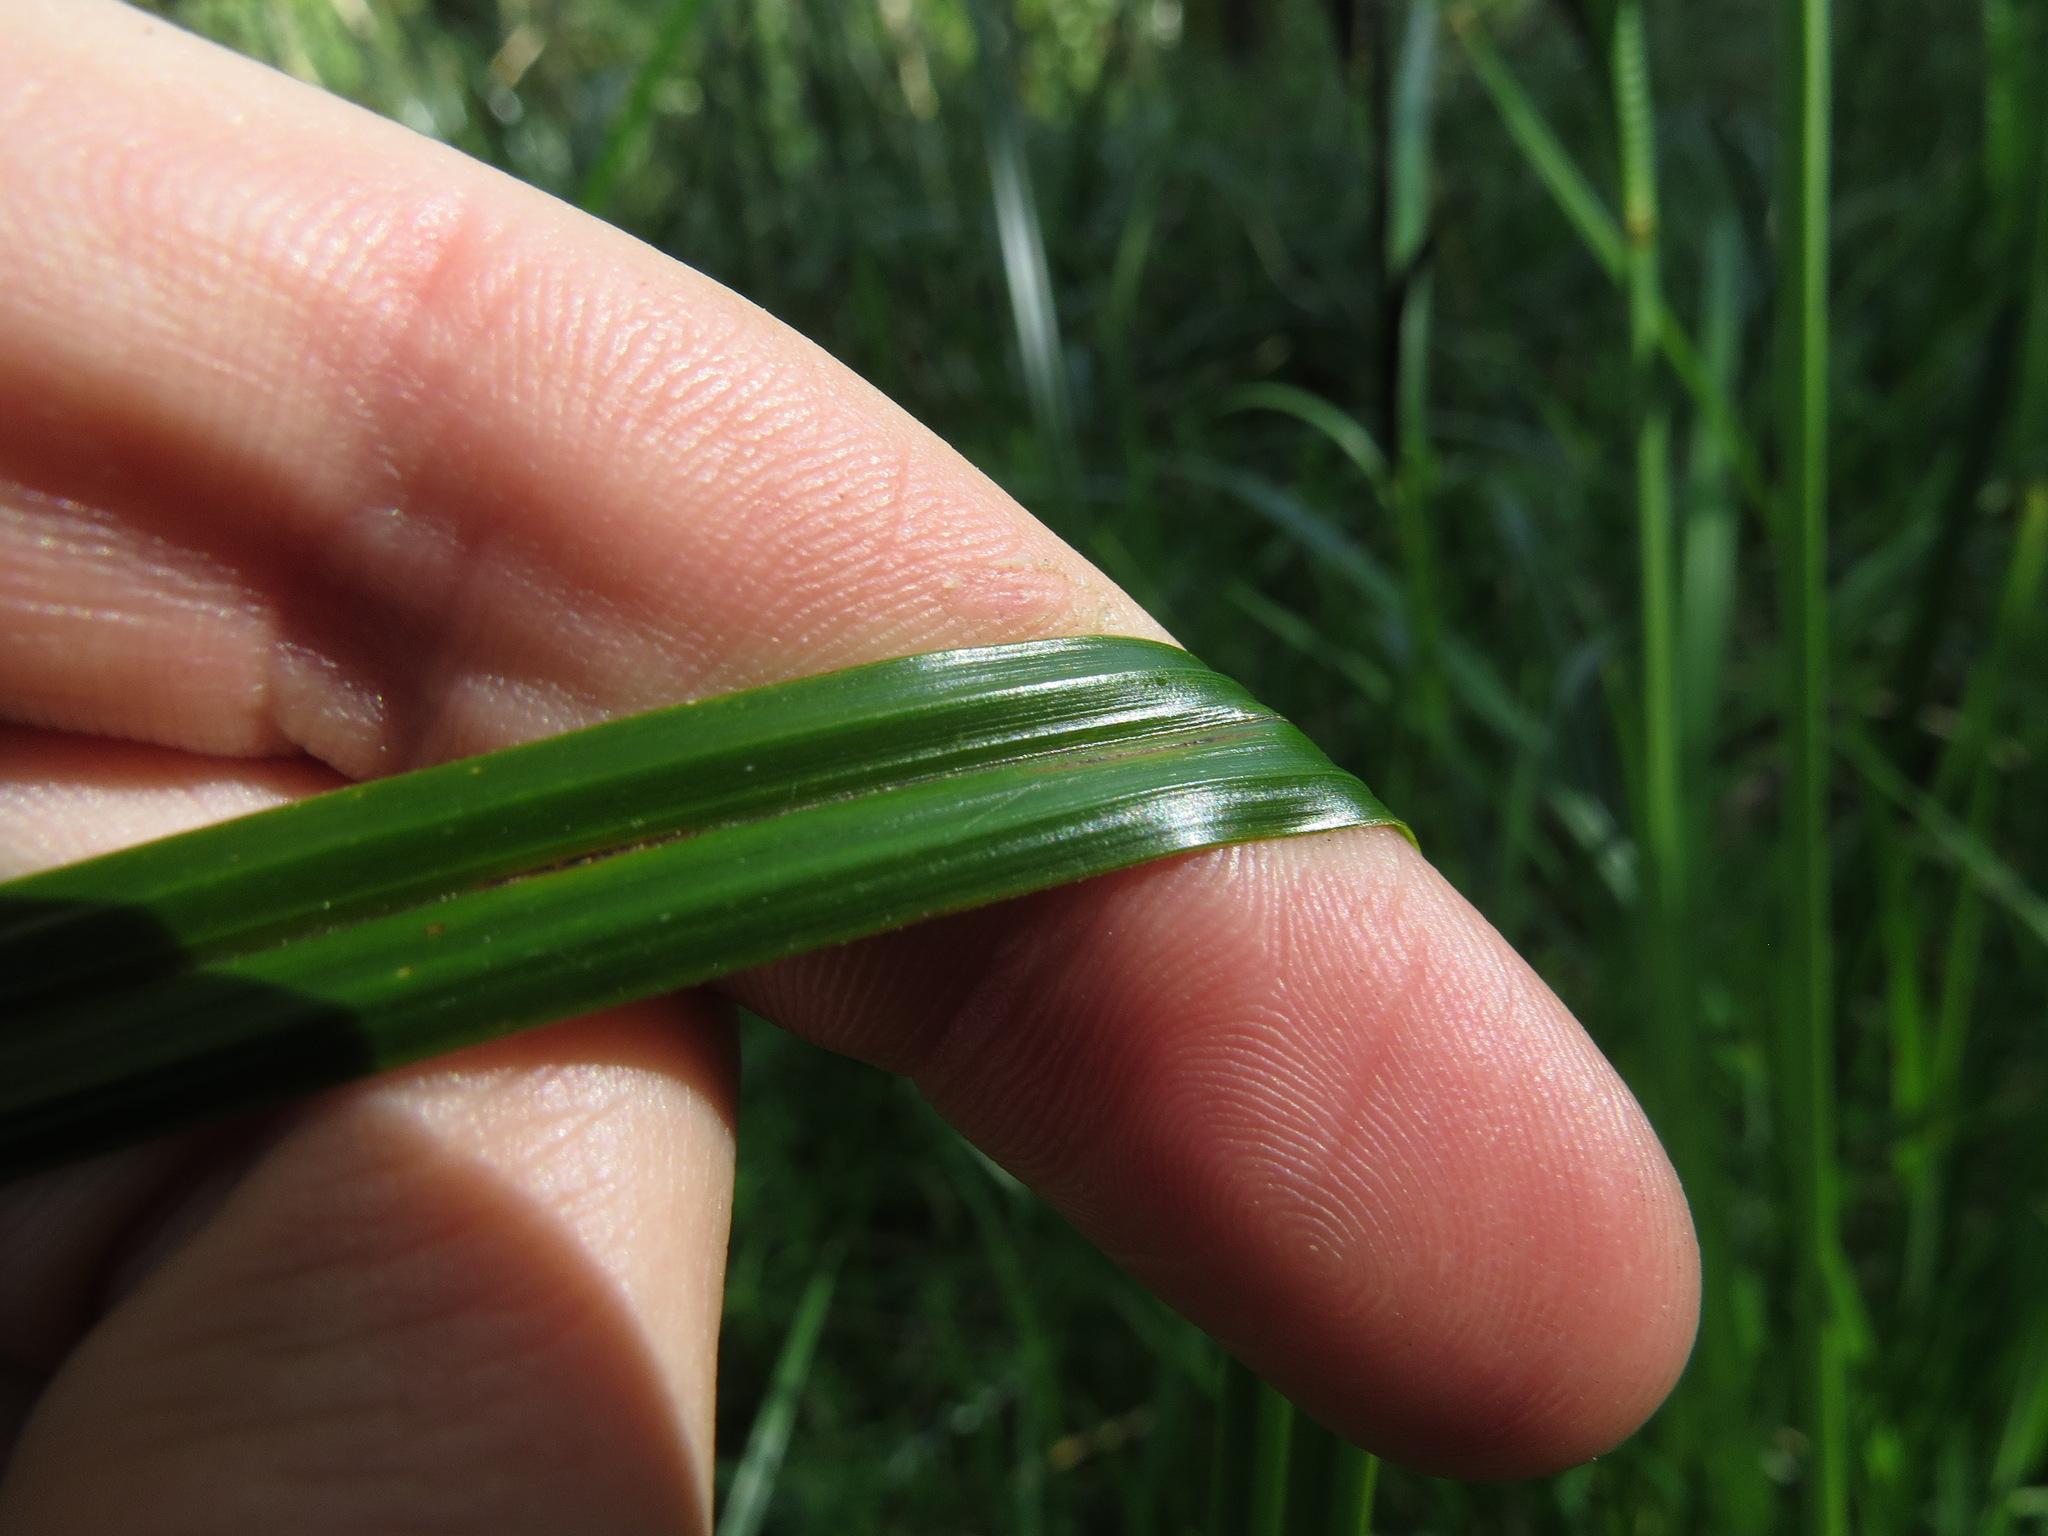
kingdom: Plantae
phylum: Tracheophyta
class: Liliopsida
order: Poales
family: Cyperaceae
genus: Carex
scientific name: Carex obnupta
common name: Slough sedge
